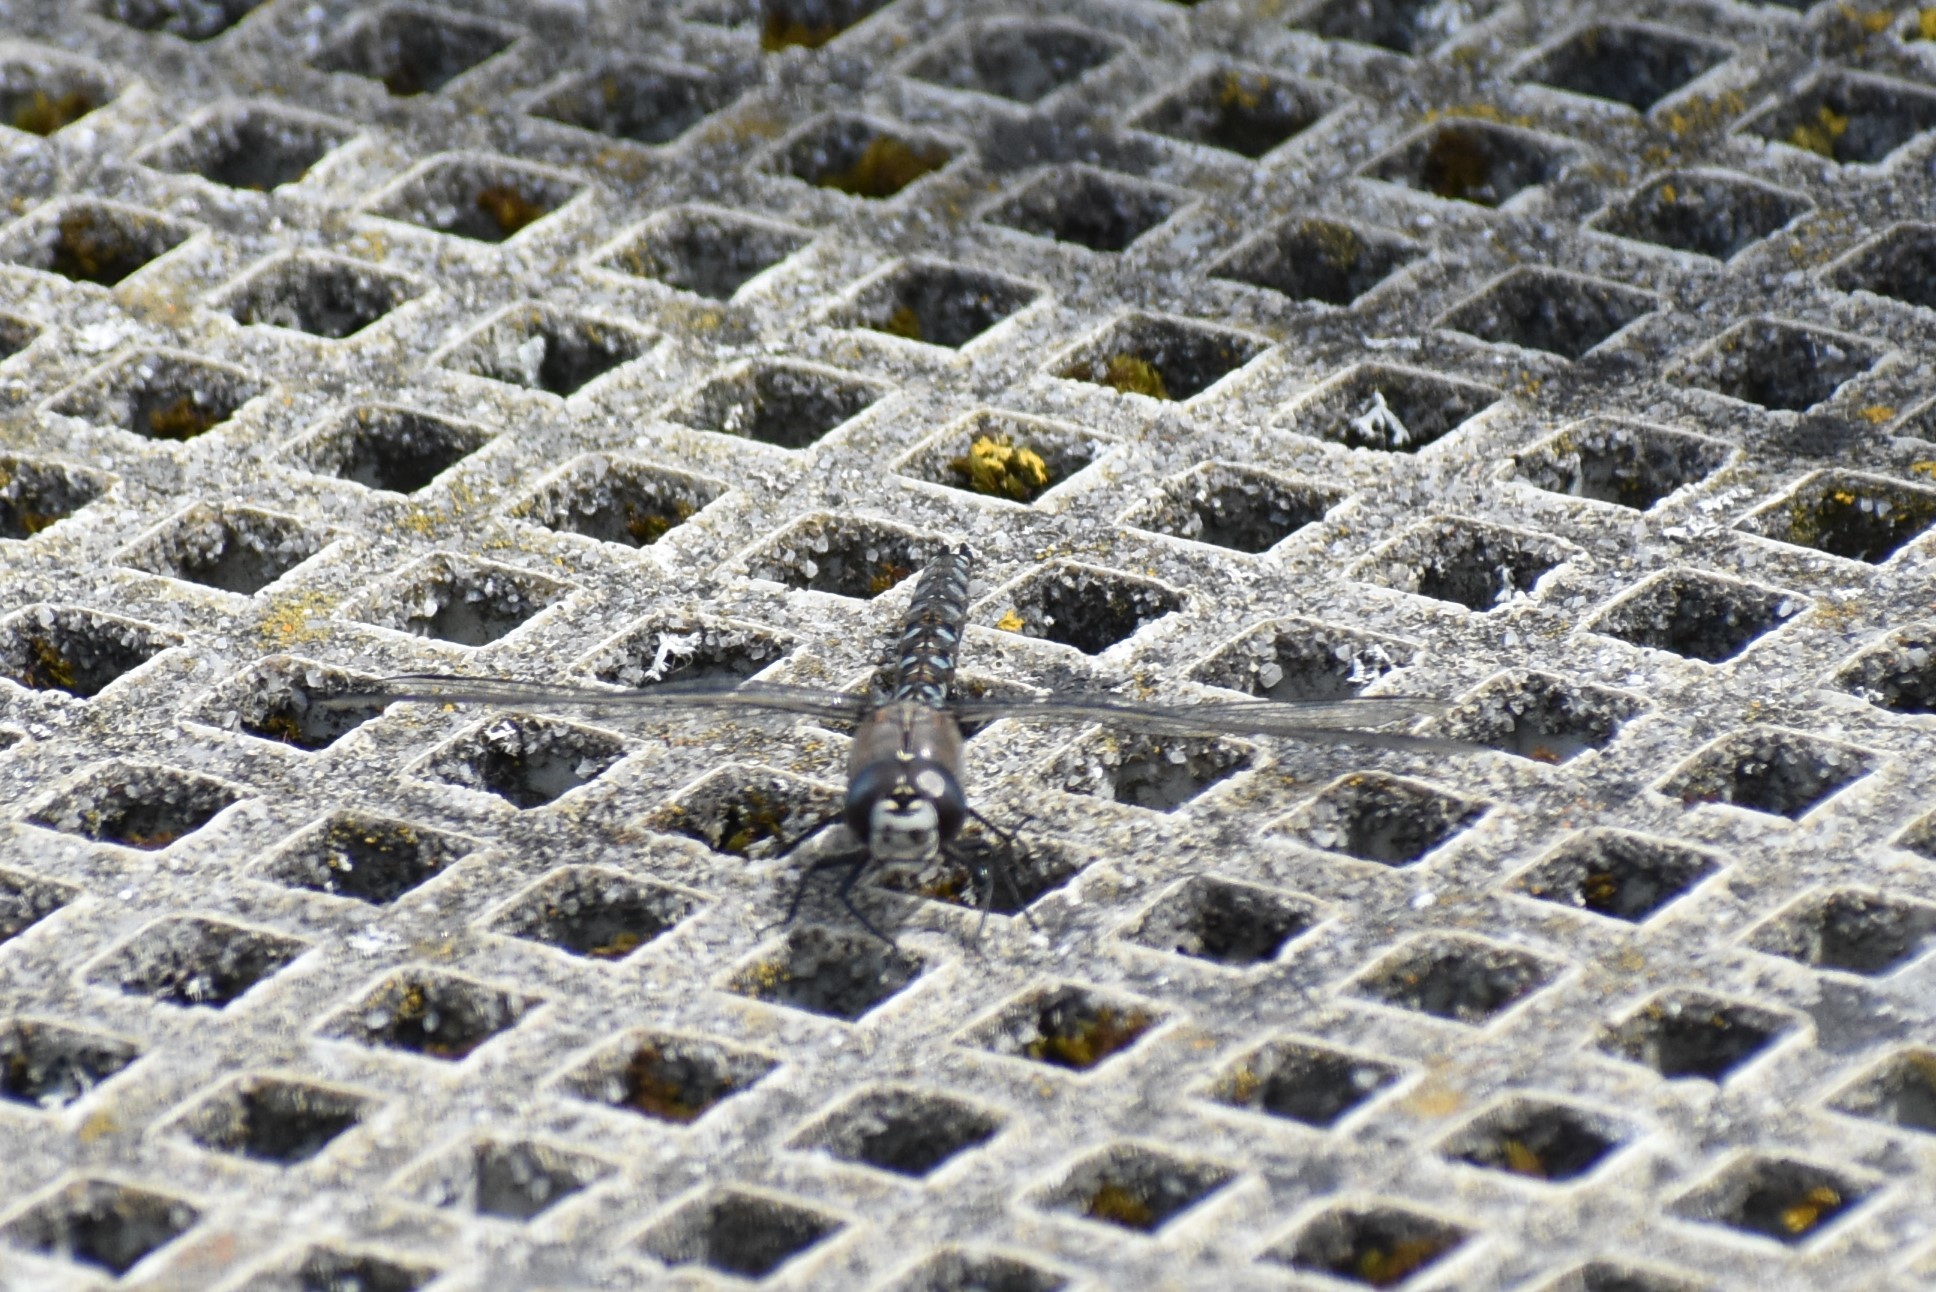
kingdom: Animalia
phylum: Arthropoda
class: Insecta
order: Odonata
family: Aeshnidae
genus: Rhionaeschna
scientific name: Rhionaeschna californica
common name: California darner
